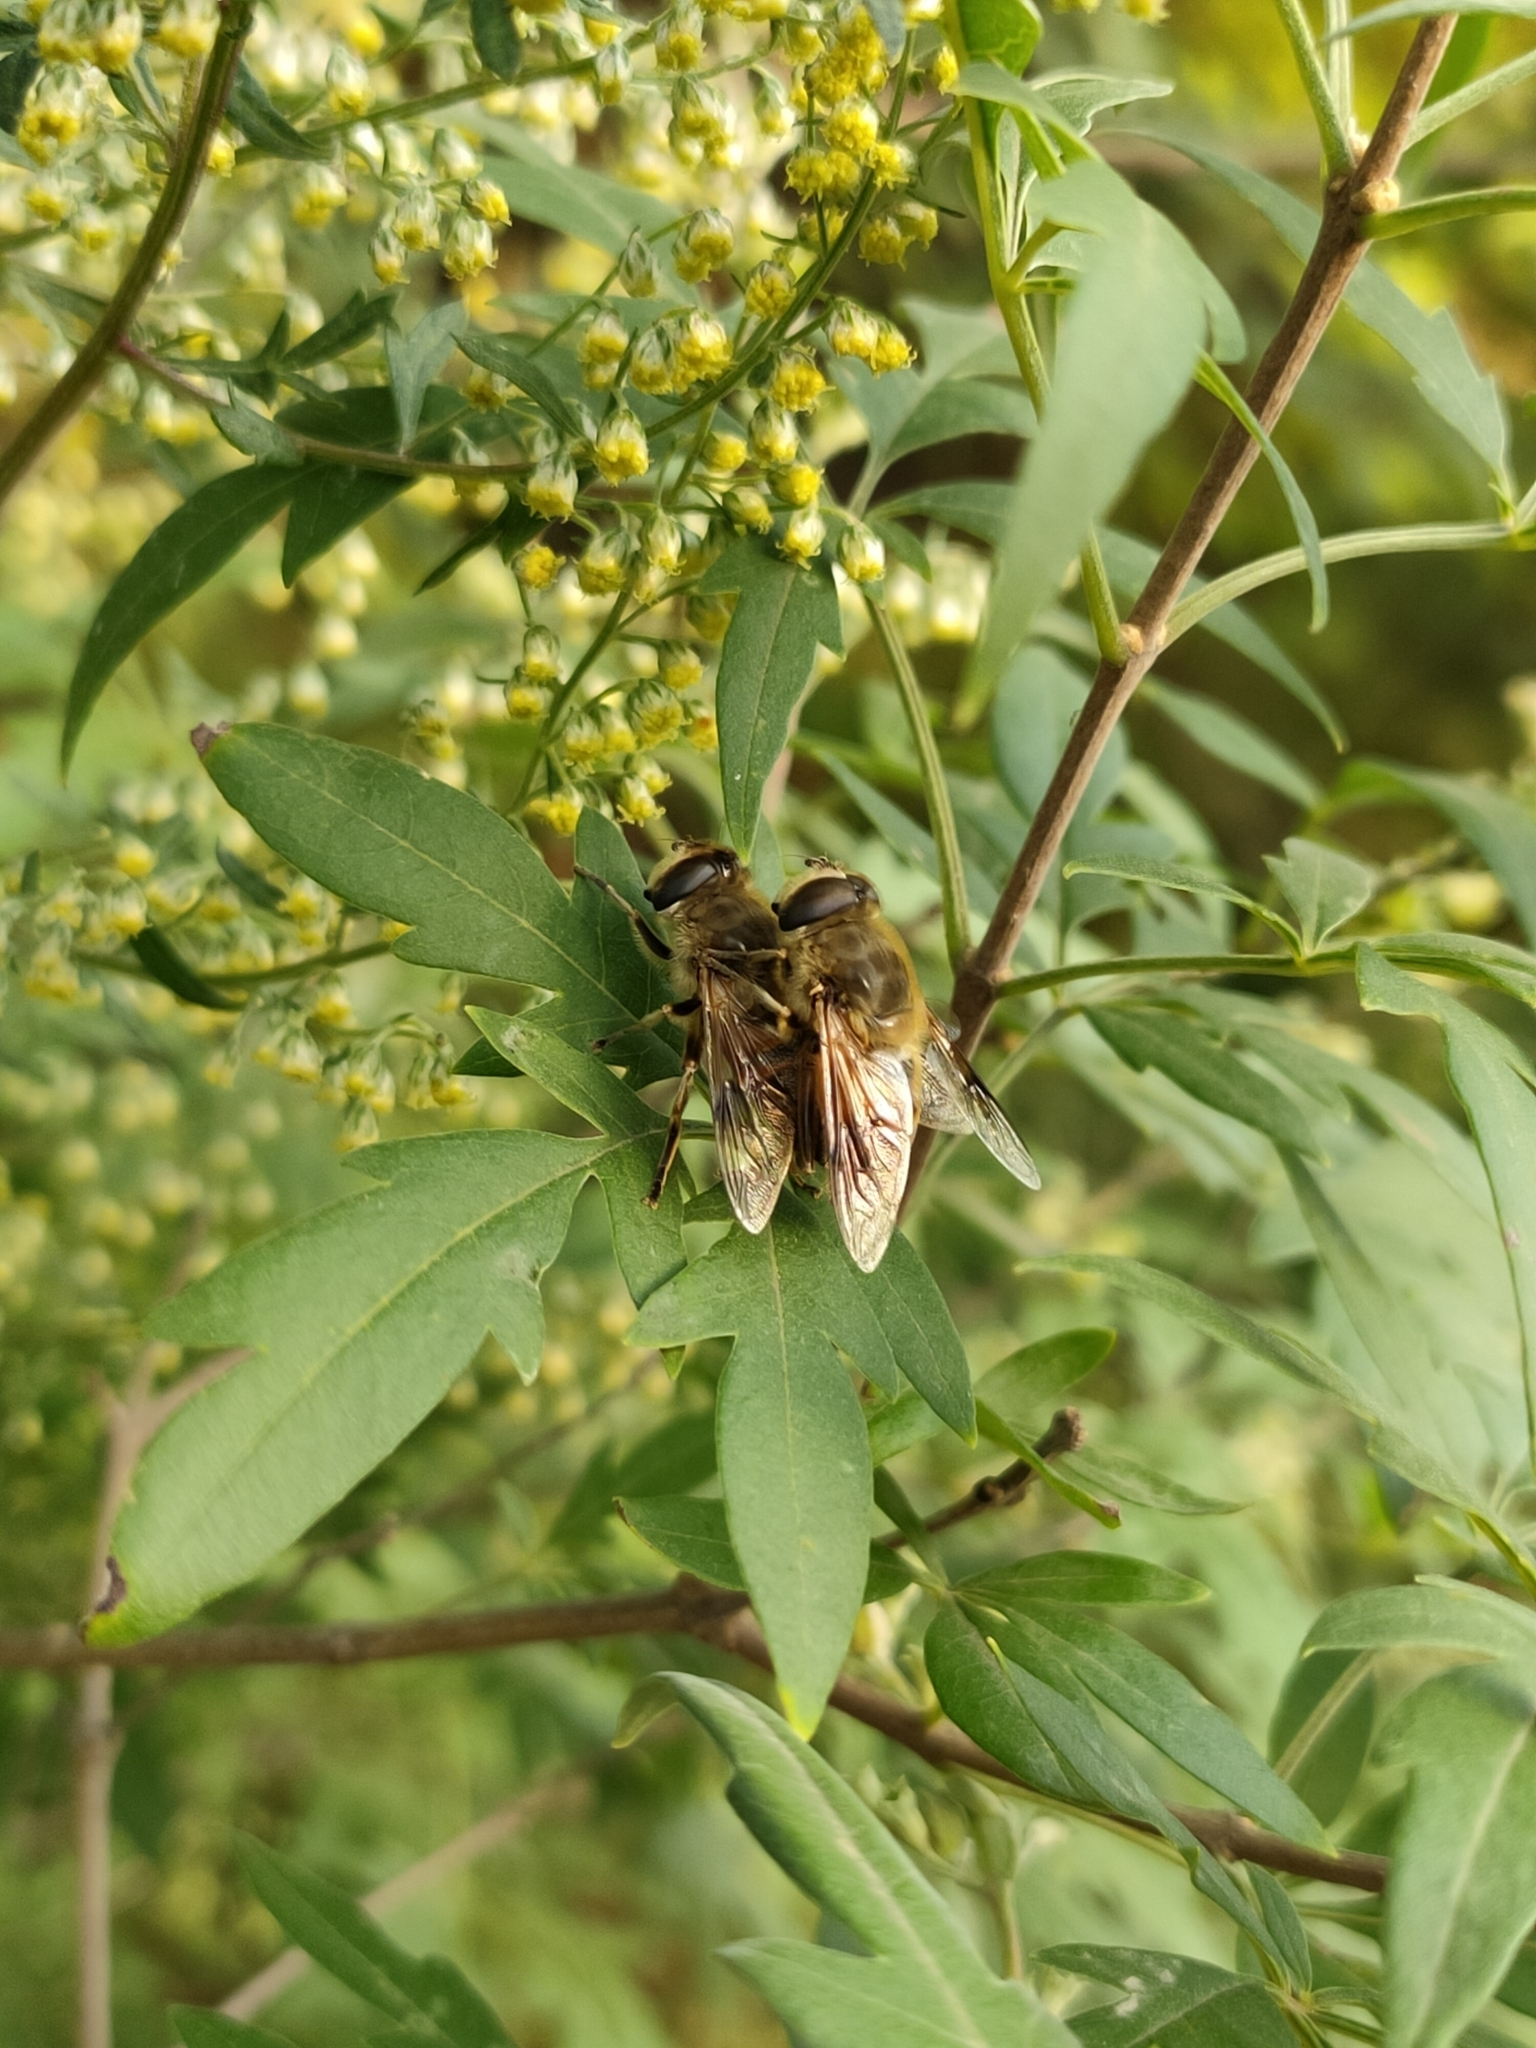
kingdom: Animalia
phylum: Arthropoda
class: Insecta
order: Diptera
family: Syrphidae
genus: Eristalis
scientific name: Eristalis tenax
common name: Drone fly
